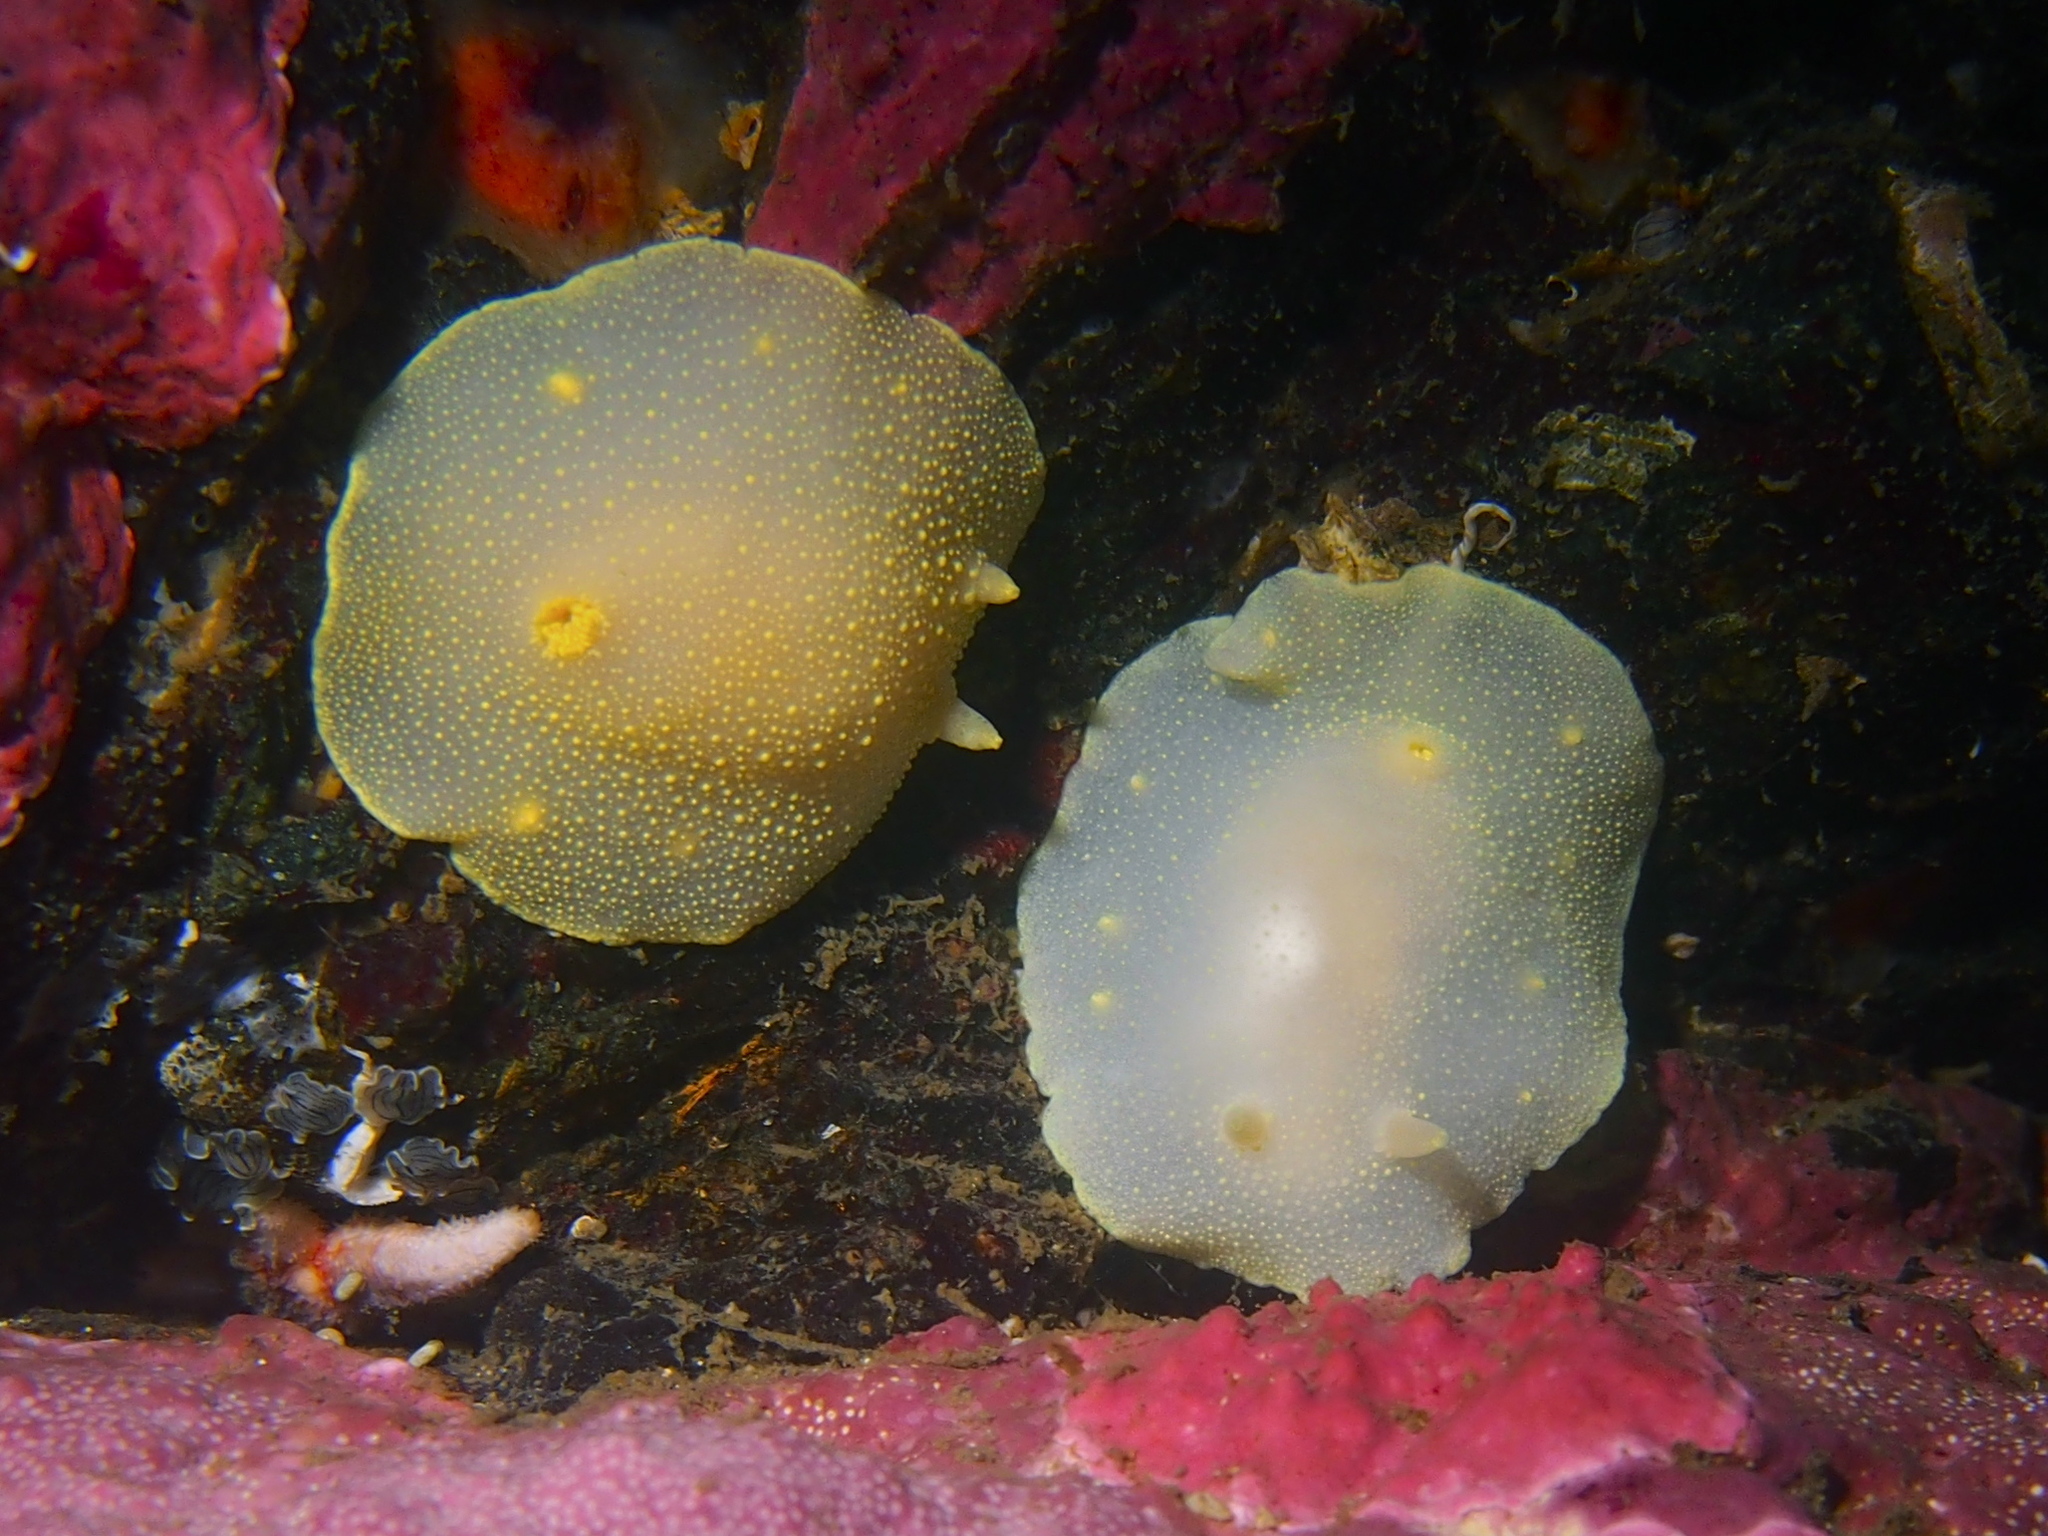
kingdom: Animalia
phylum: Mollusca
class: Gastropoda
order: Nudibranchia
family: Cadlinidae
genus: Cadlina
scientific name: Cadlina laevis
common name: White atlantic cadlina
